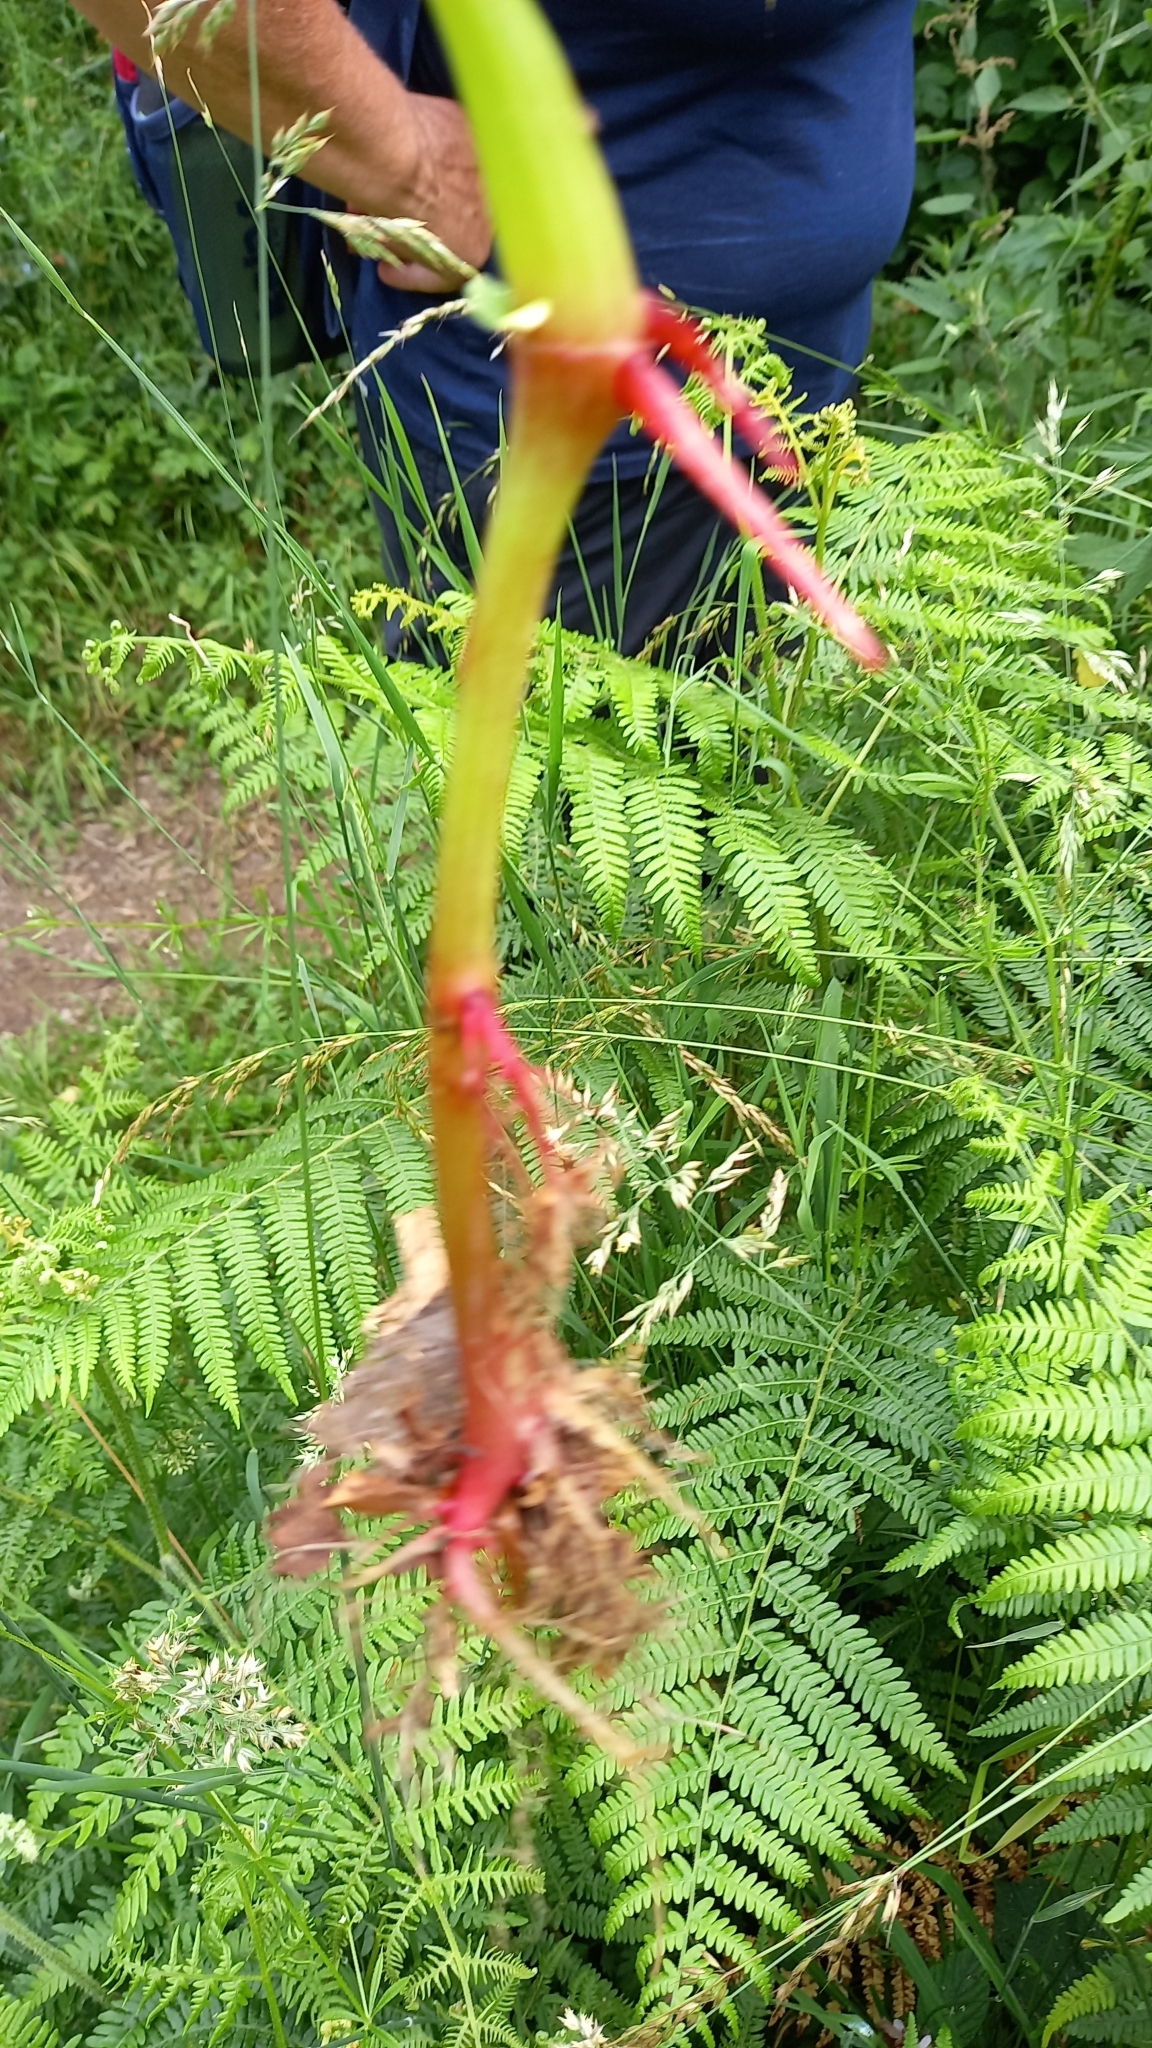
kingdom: Plantae
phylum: Tracheophyta
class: Magnoliopsida
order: Ericales
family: Balsaminaceae
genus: Impatiens
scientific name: Impatiens glandulifera
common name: Himalayan balsam
